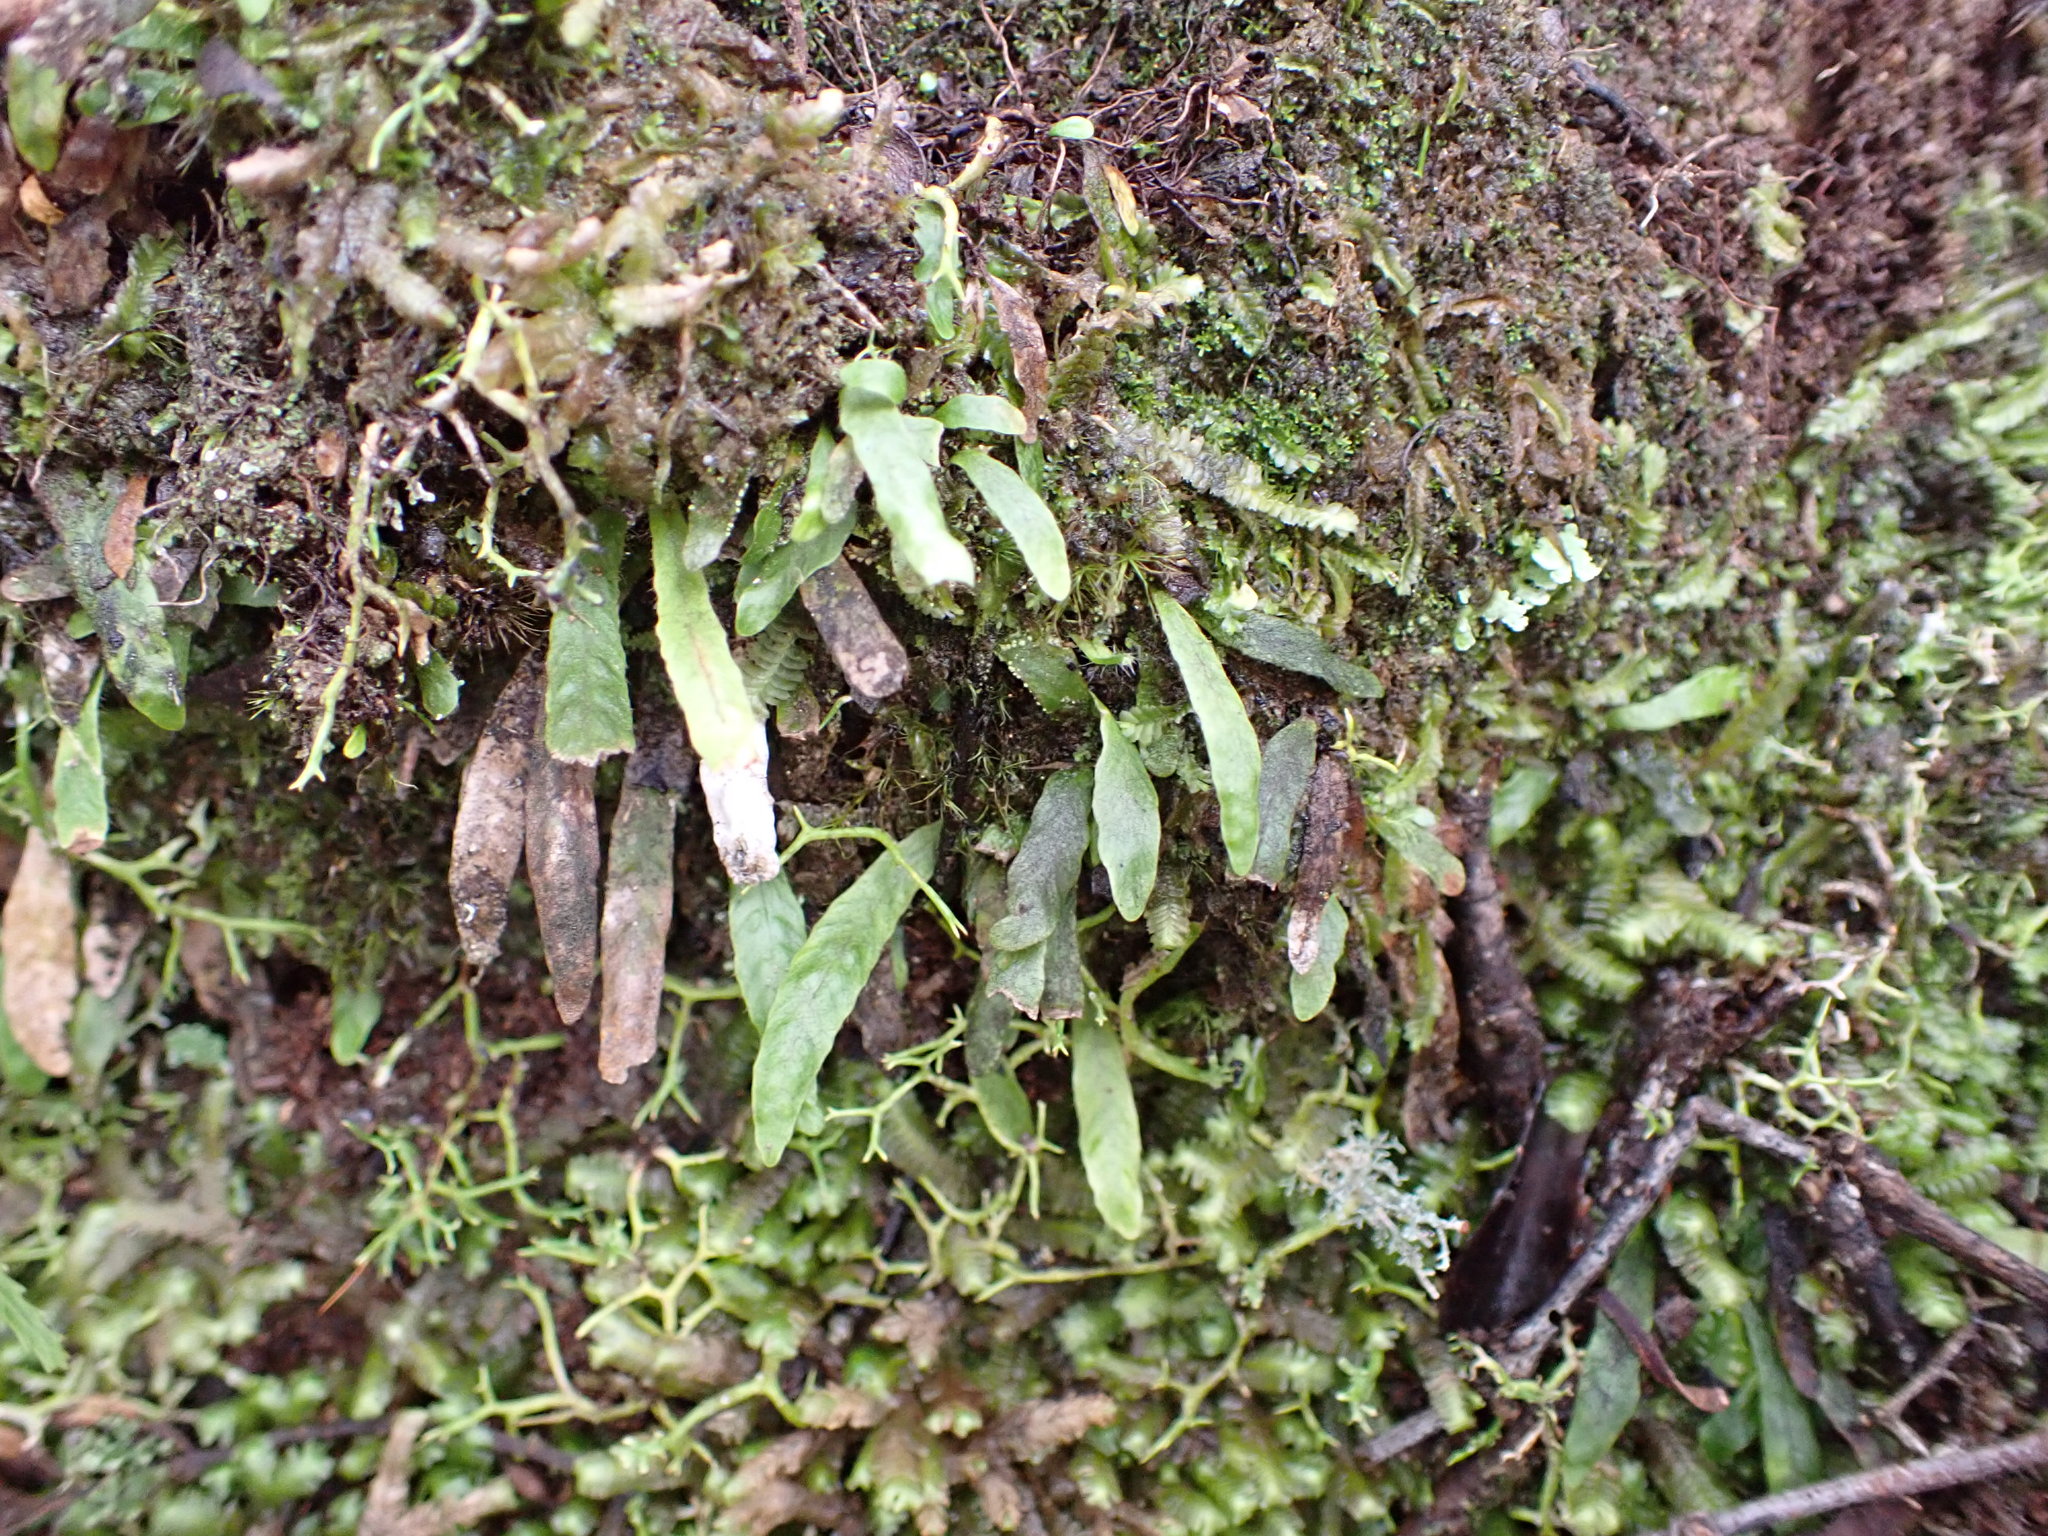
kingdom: Plantae
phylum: Tracheophyta
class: Polypodiopsida
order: Polypodiales
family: Polypodiaceae
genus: Notogrammitis
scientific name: Notogrammitis ciliata
